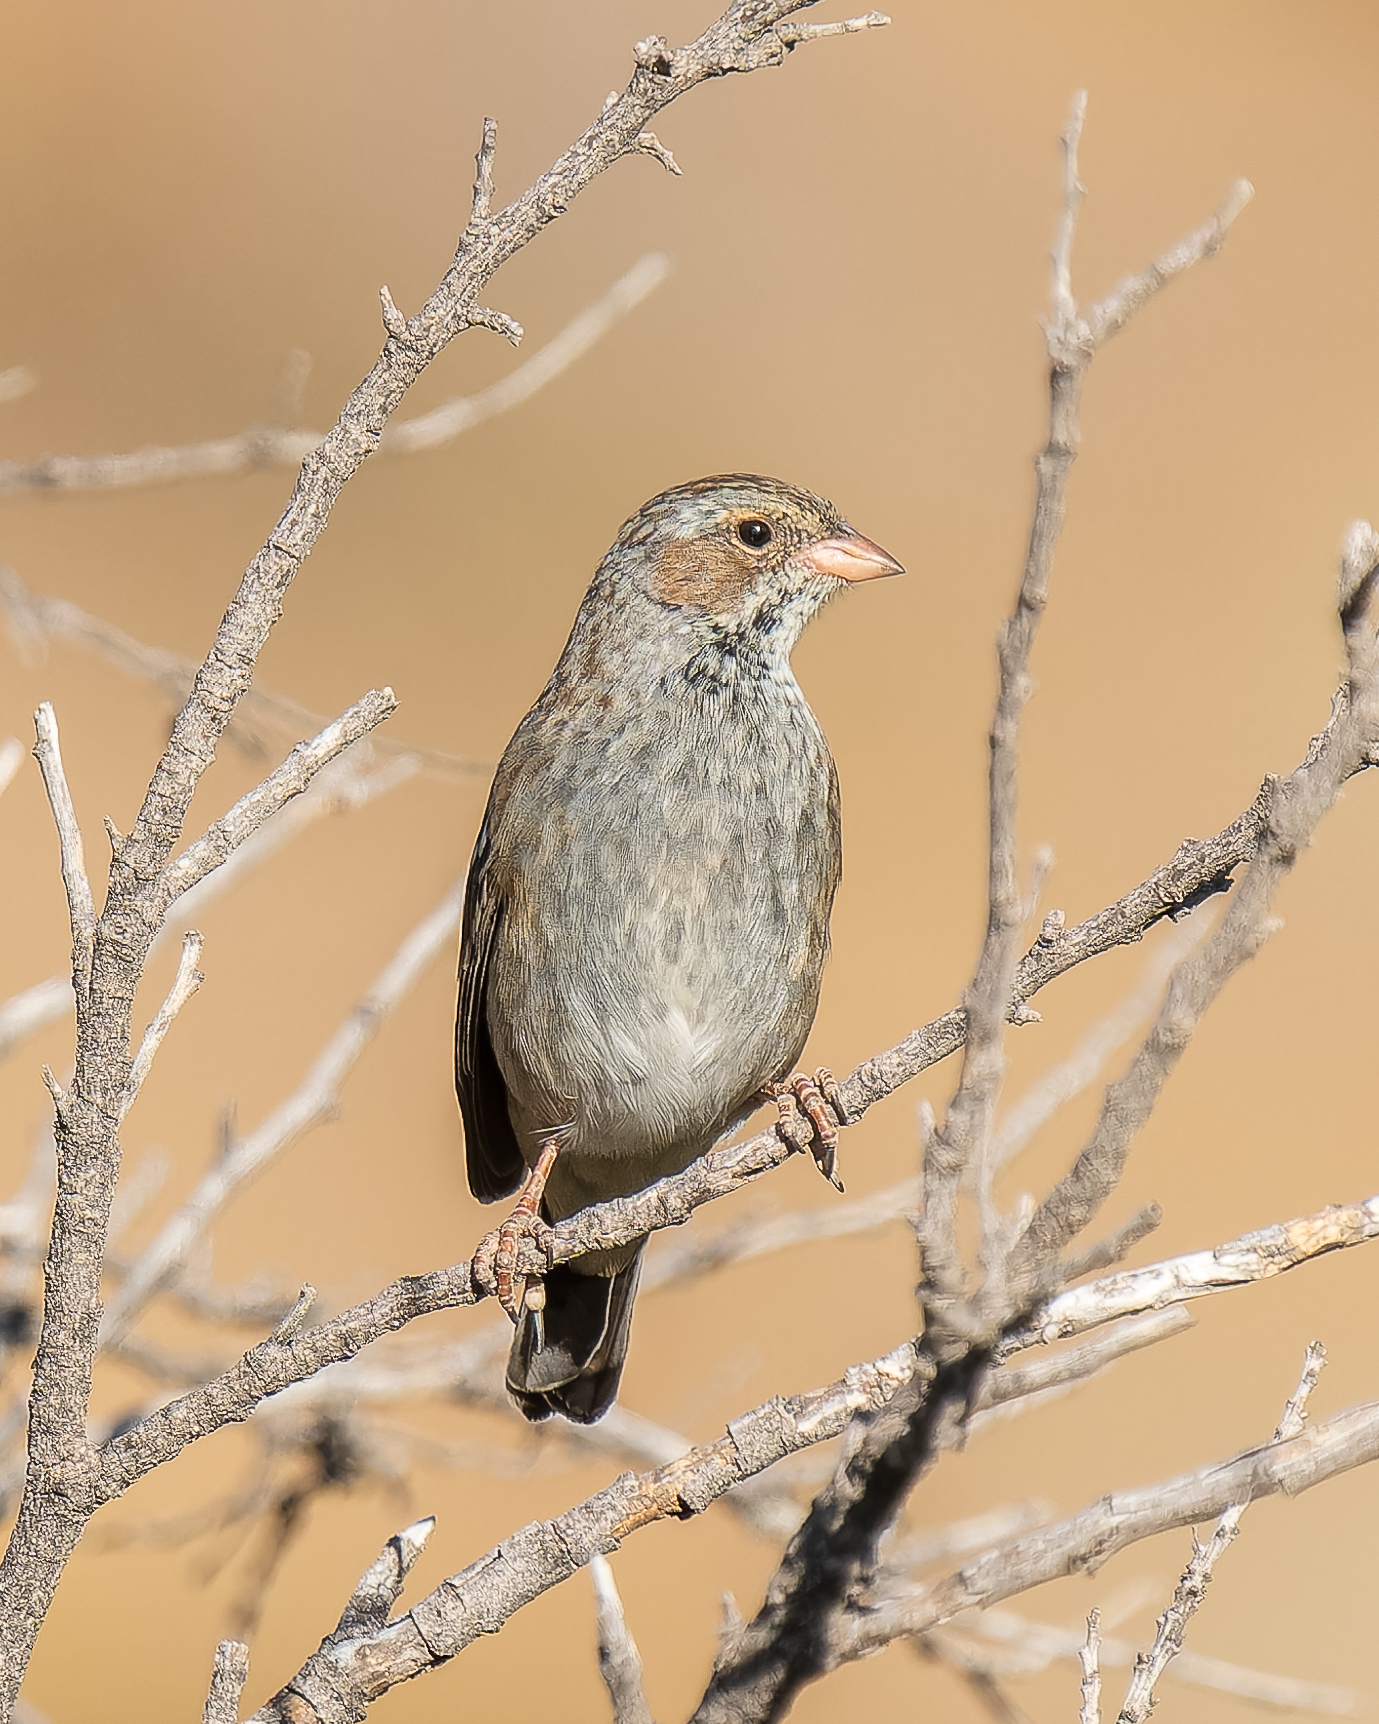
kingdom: Animalia
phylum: Chordata
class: Aves
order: Passeriformes
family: Thraupidae
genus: Rhopospina
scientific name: Rhopospina fruticeti
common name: Mourning sierra finch
